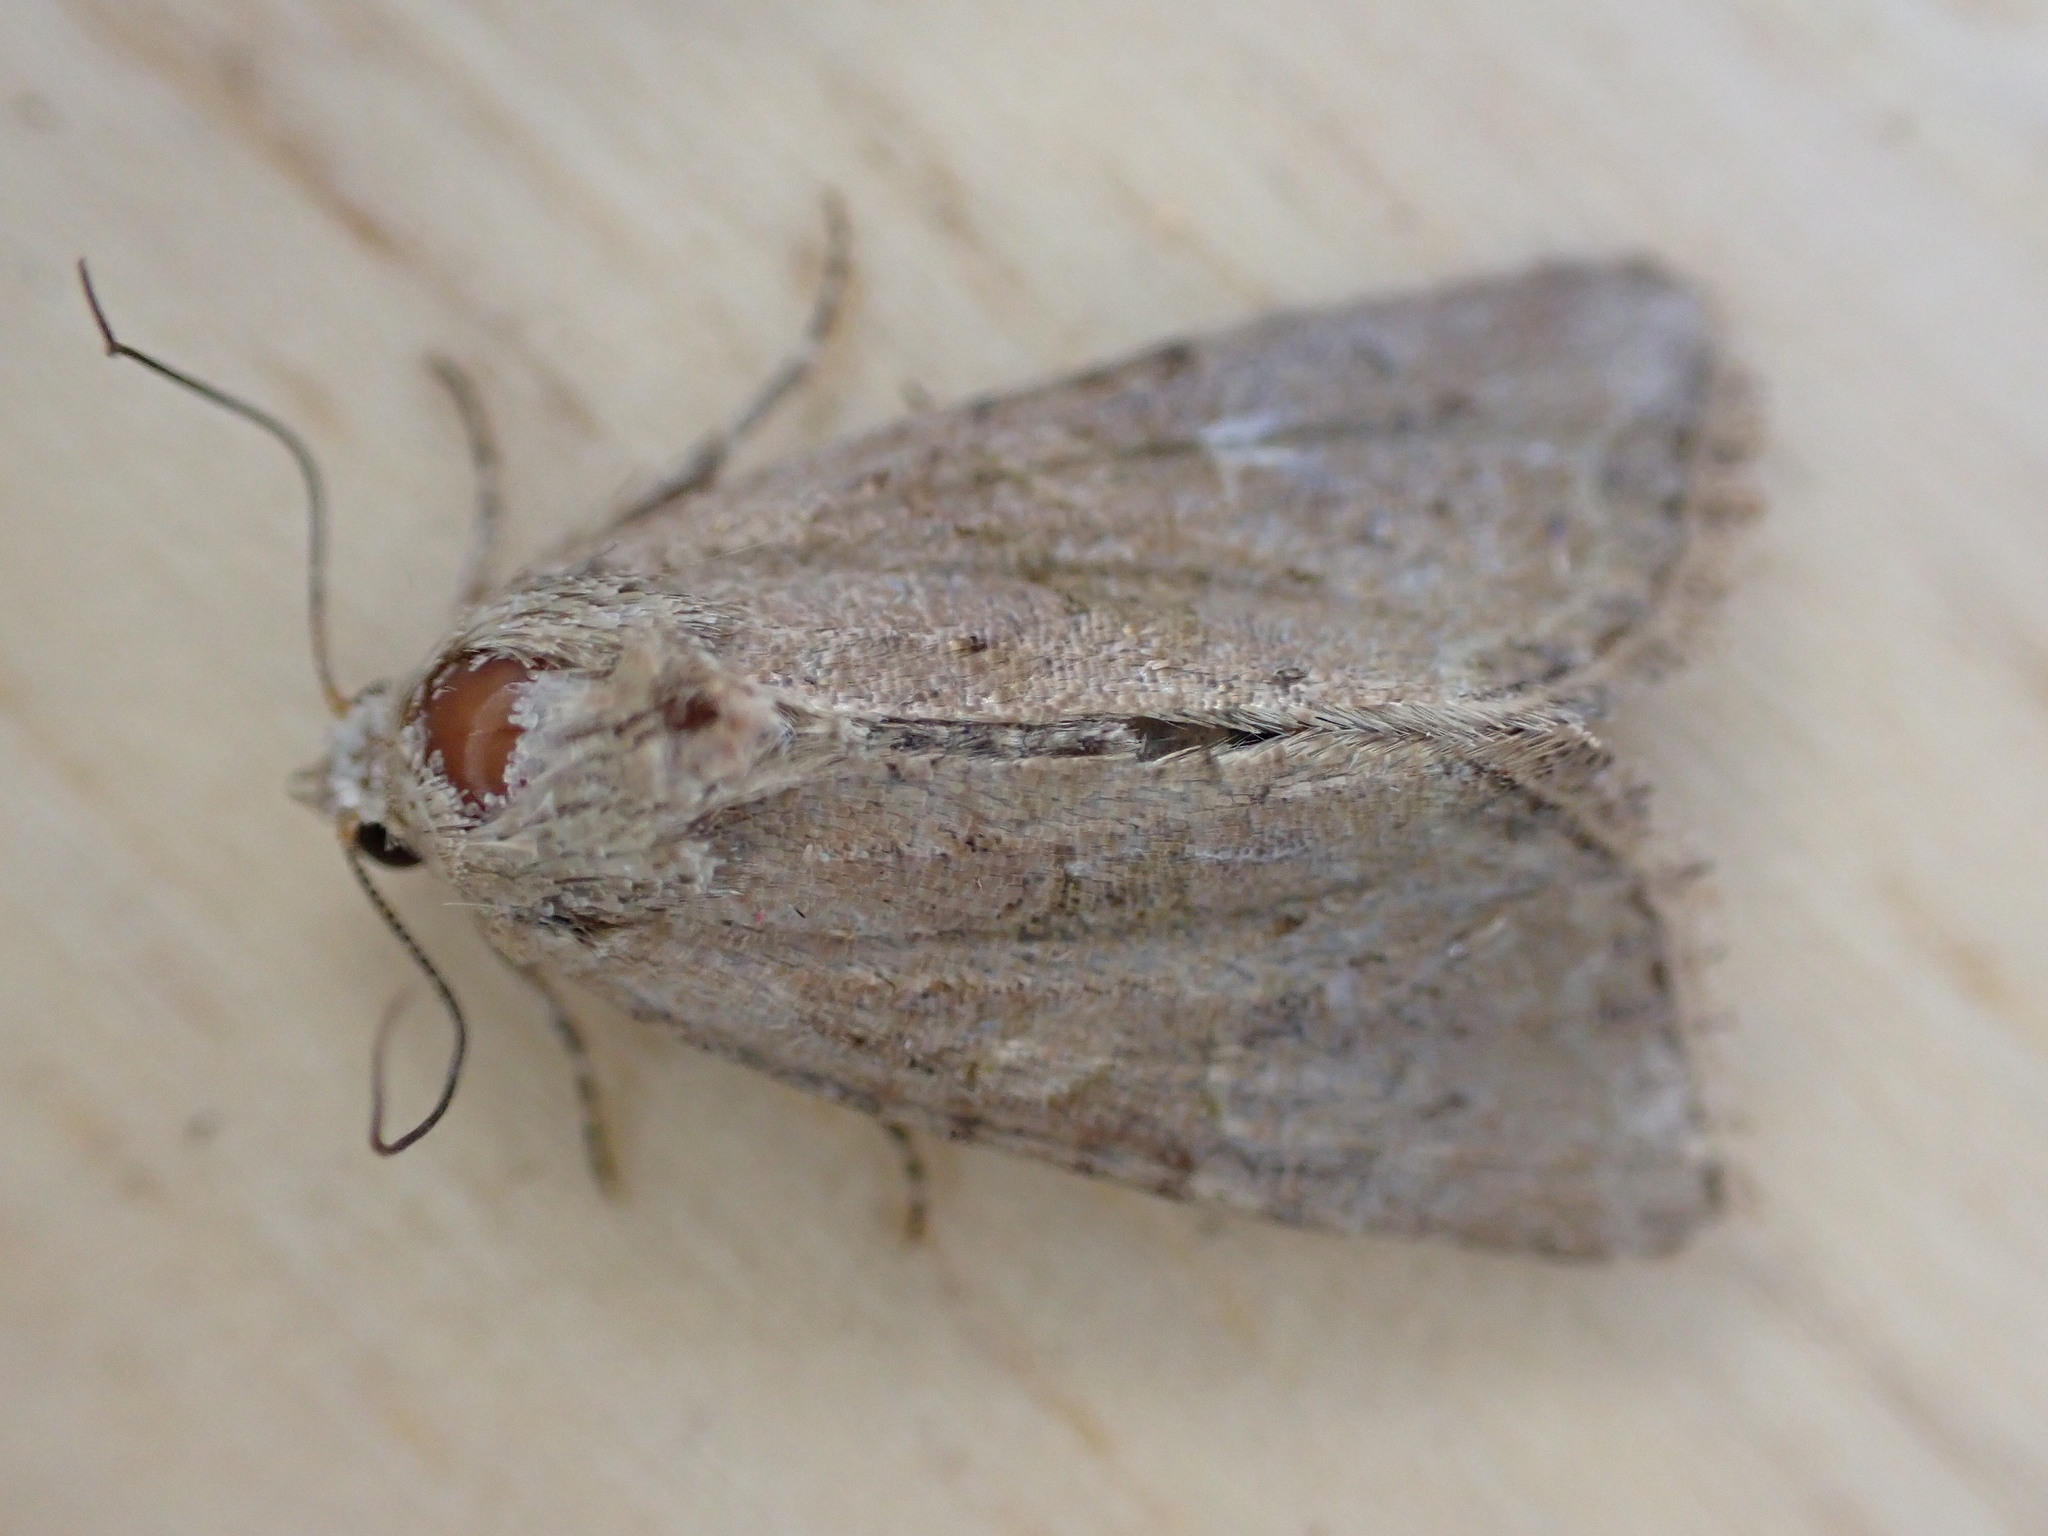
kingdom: Animalia
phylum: Arthropoda
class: Insecta
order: Lepidoptera
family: Noctuidae
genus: Mesoligia
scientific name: Mesoligia furuncula
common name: Cloaked minor
